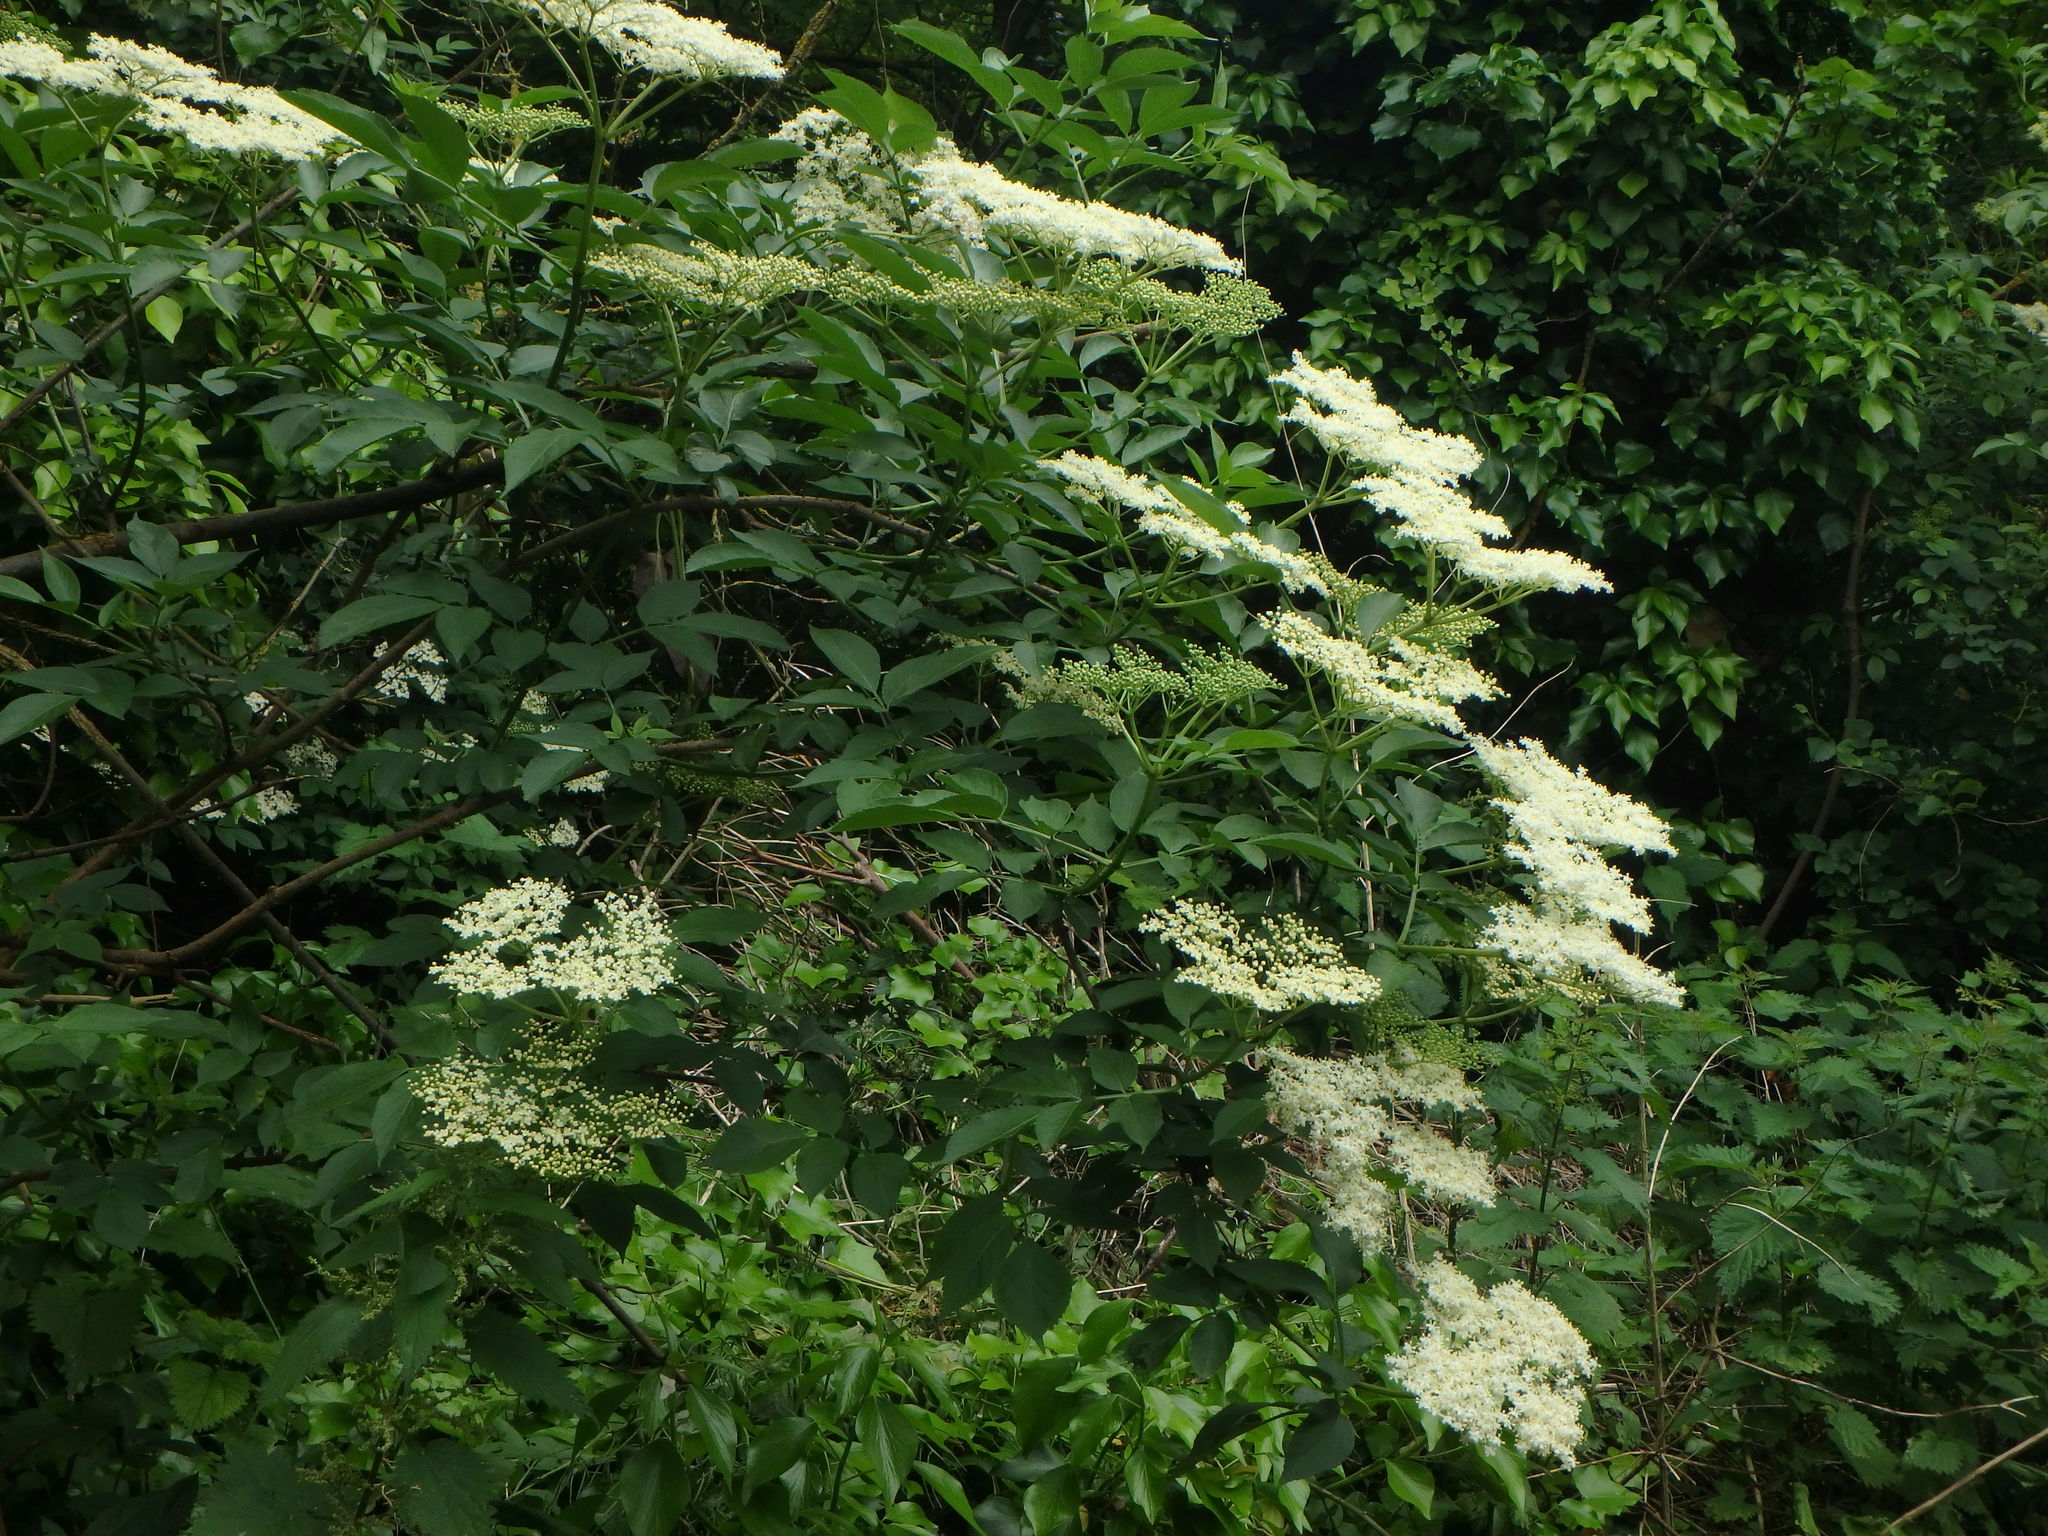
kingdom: Plantae
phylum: Tracheophyta
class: Magnoliopsida
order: Dipsacales
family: Viburnaceae
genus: Sambucus
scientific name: Sambucus nigra
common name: Elder
